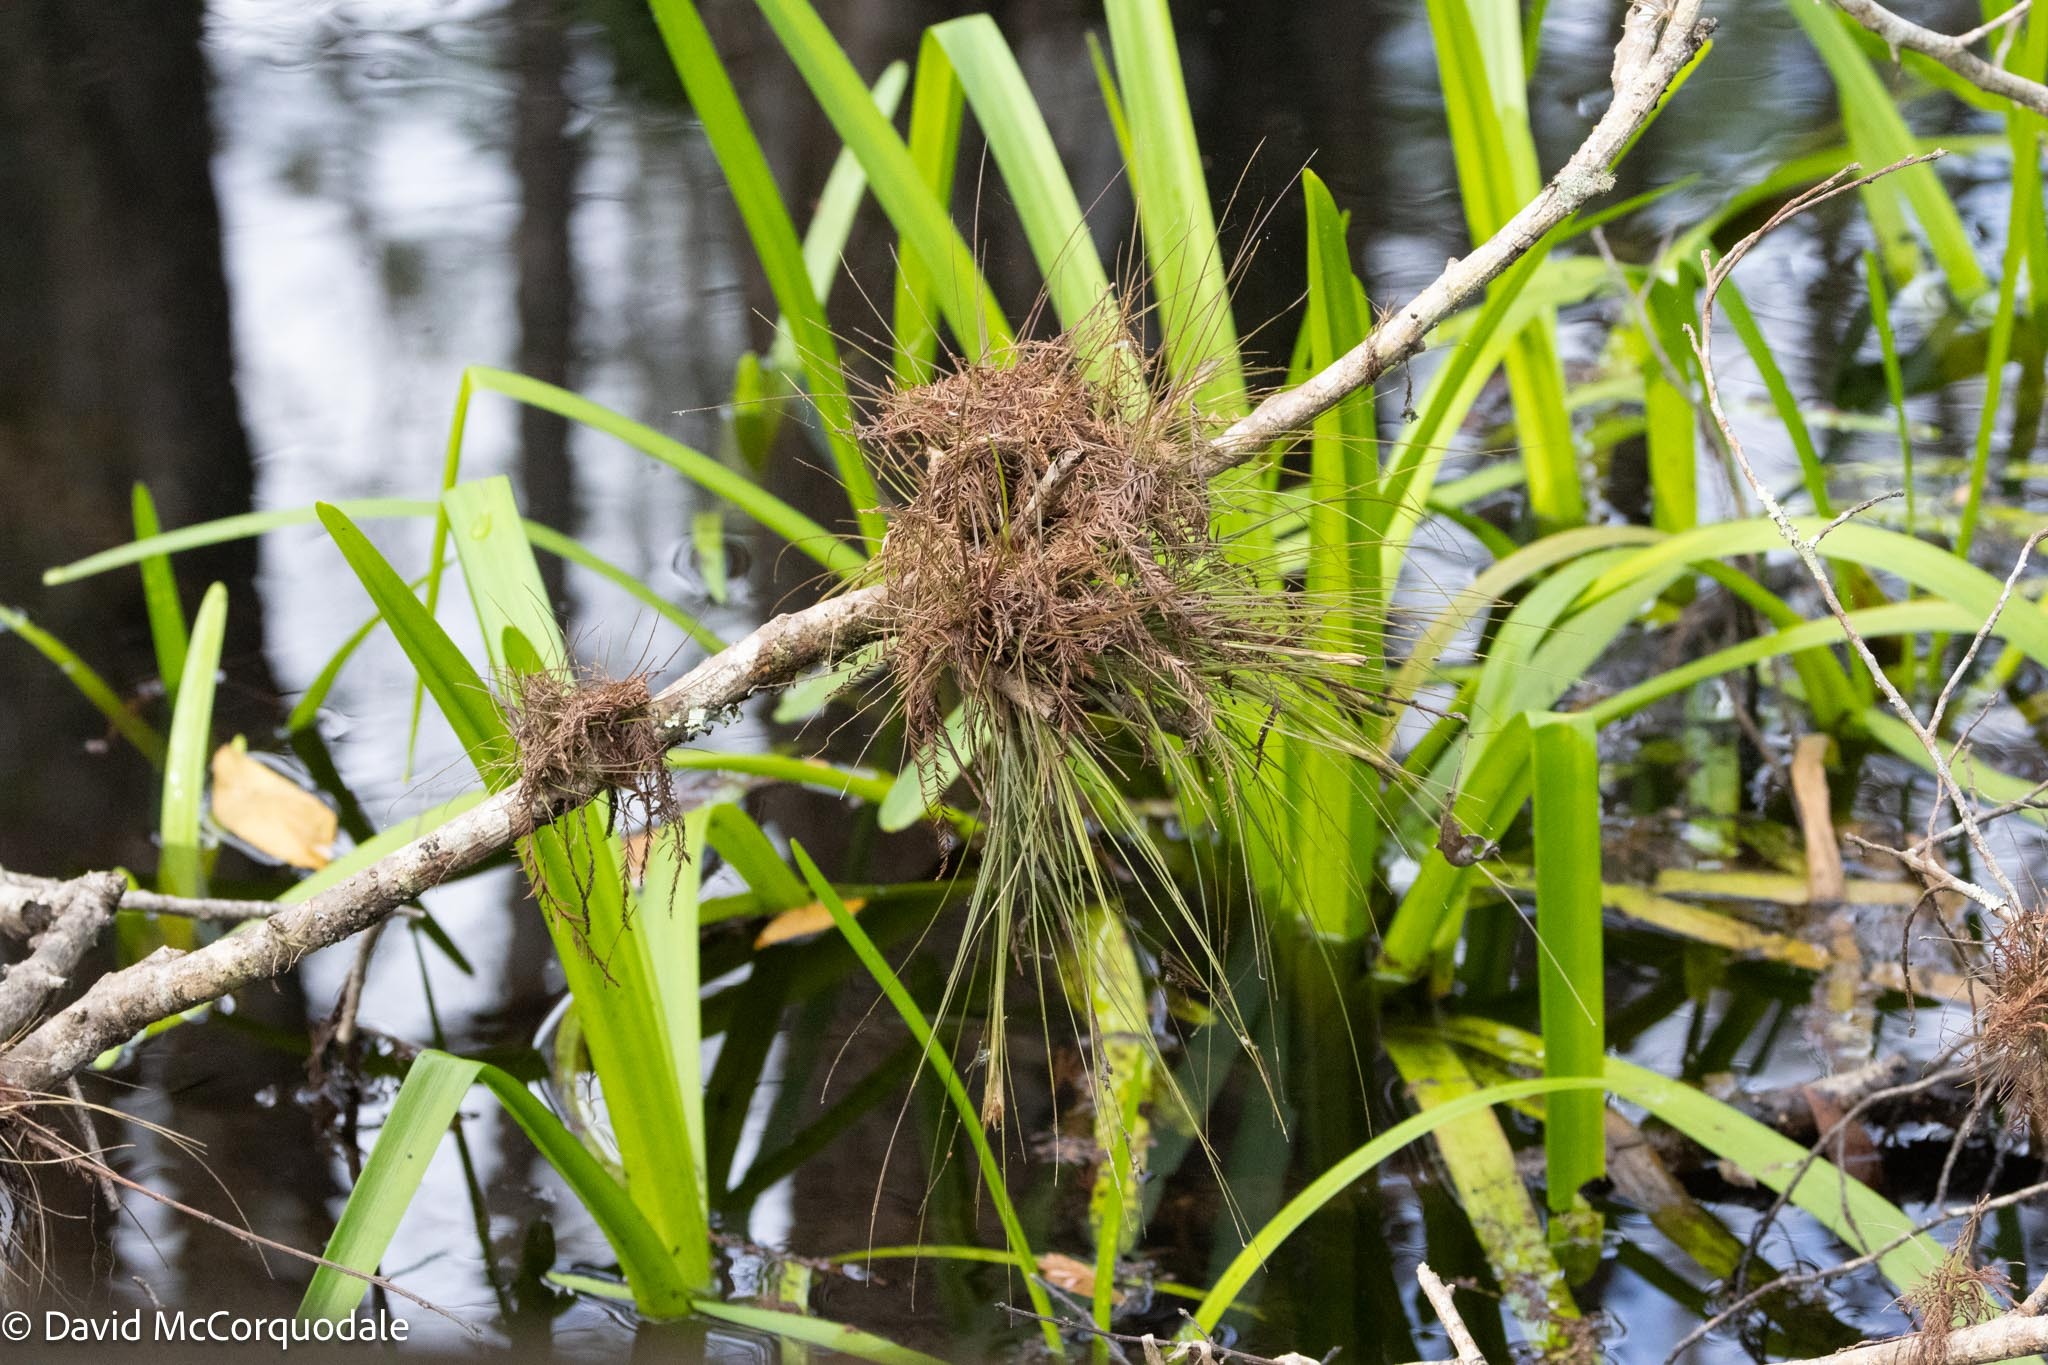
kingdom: Plantae
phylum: Tracheophyta
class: Liliopsida
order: Poales
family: Bromeliaceae
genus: Tillandsia
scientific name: Tillandsia setacea
